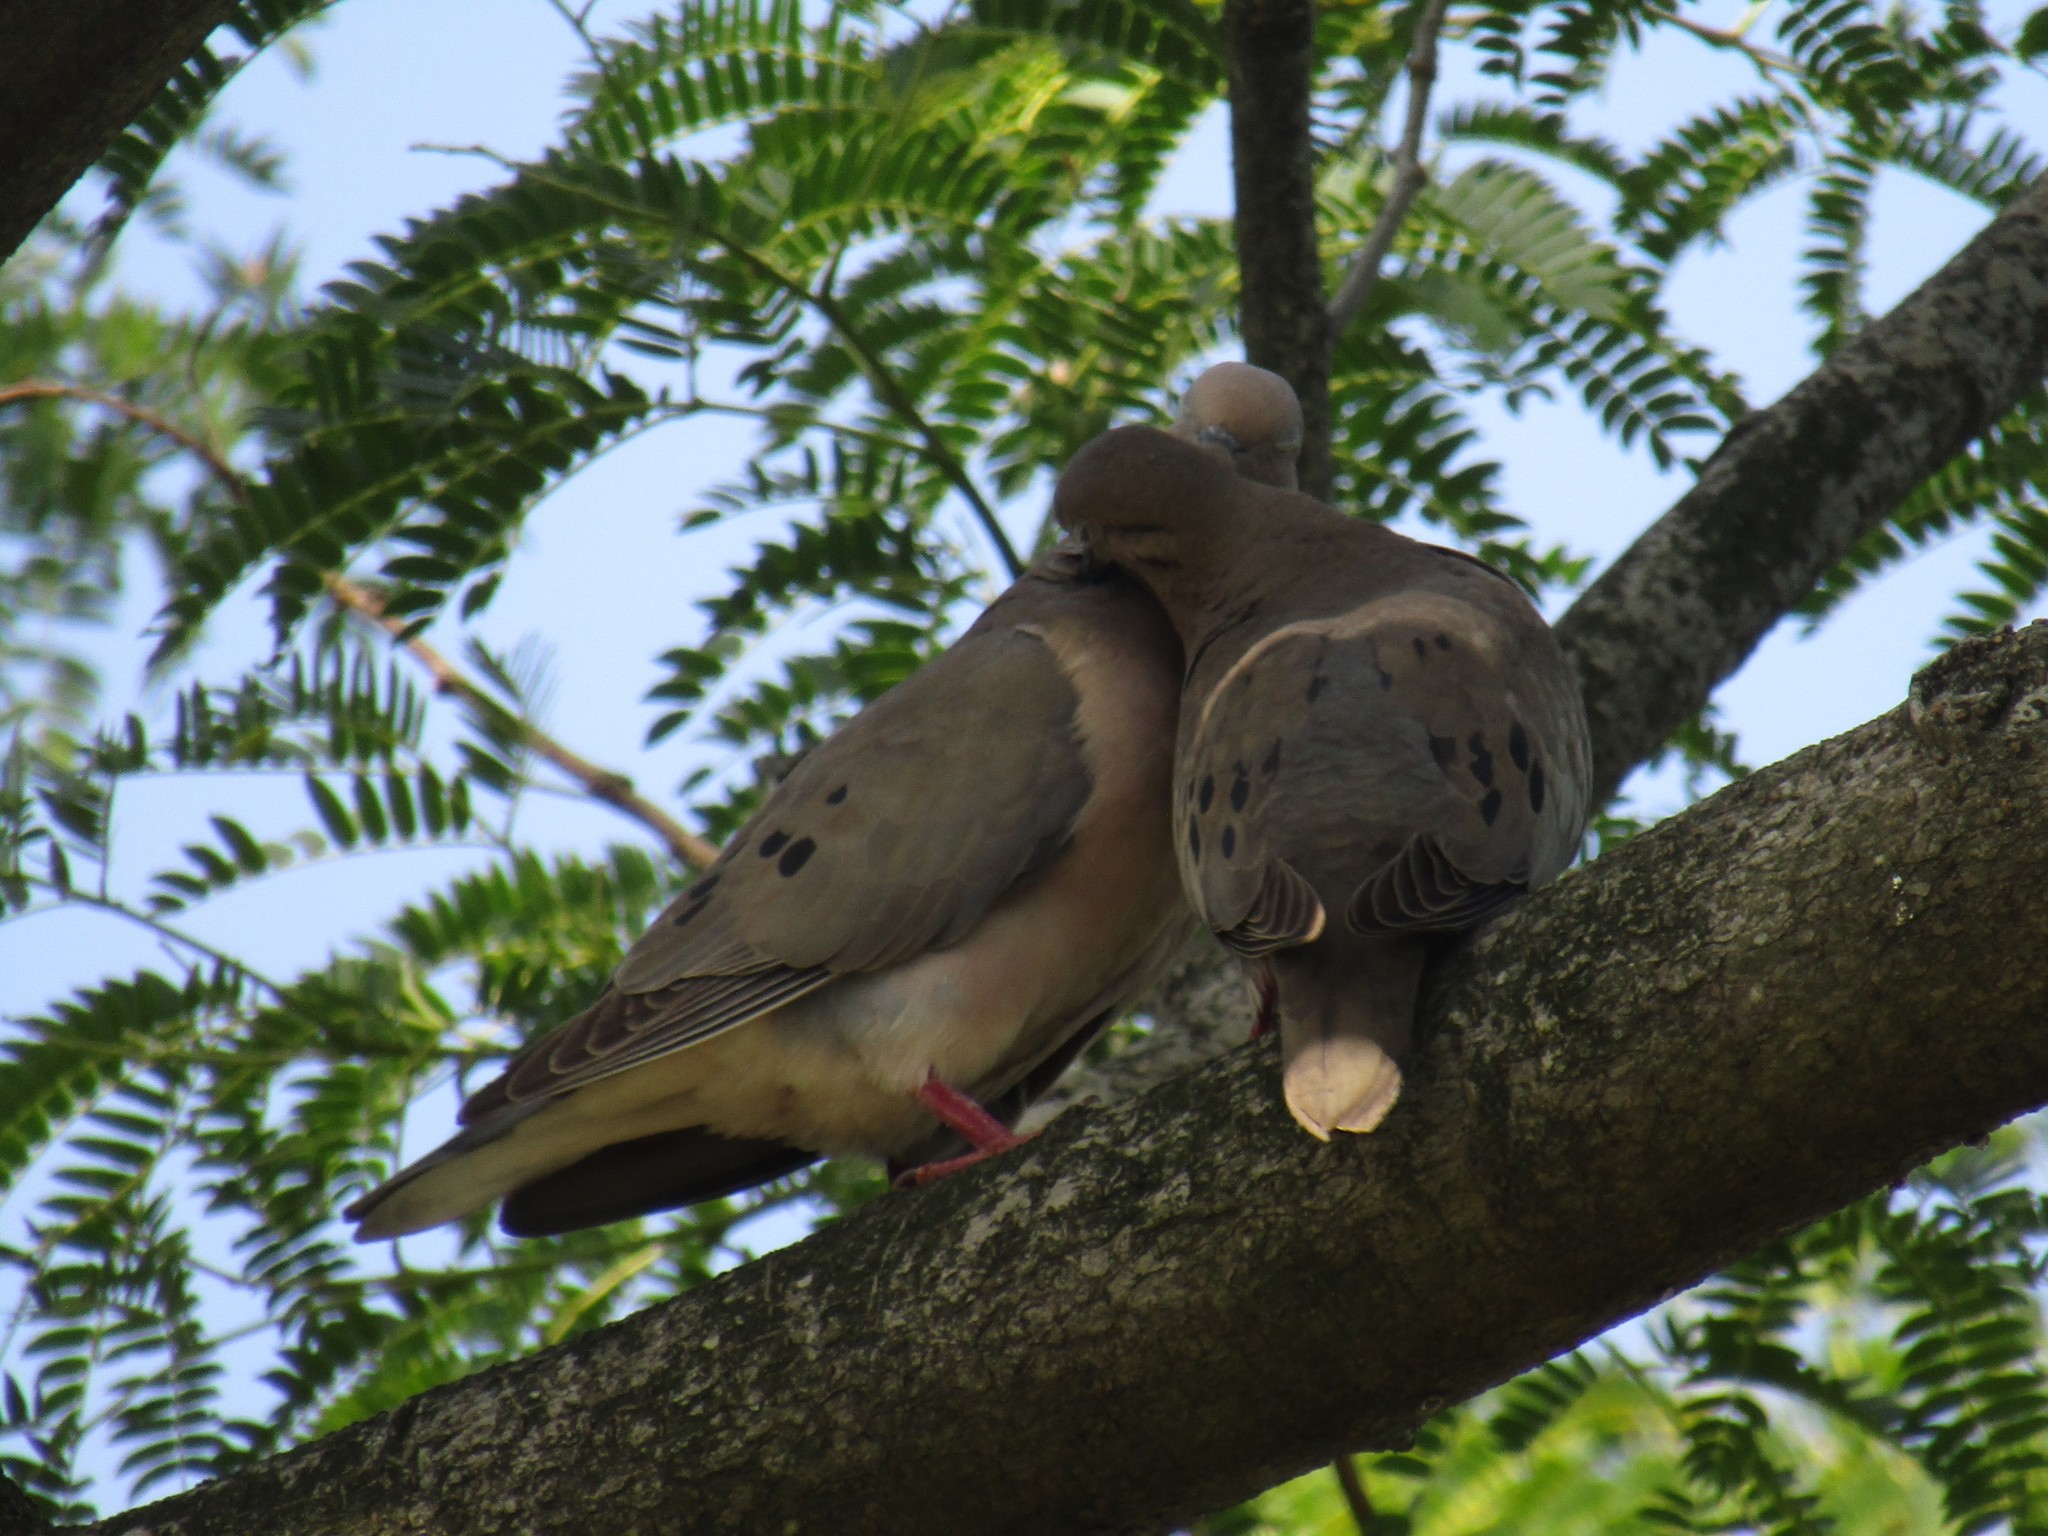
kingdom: Animalia
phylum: Chordata
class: Aves
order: Columbiformes
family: Columbidae
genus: Zenaida
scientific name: Zenaida auriculata
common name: Eared dove
